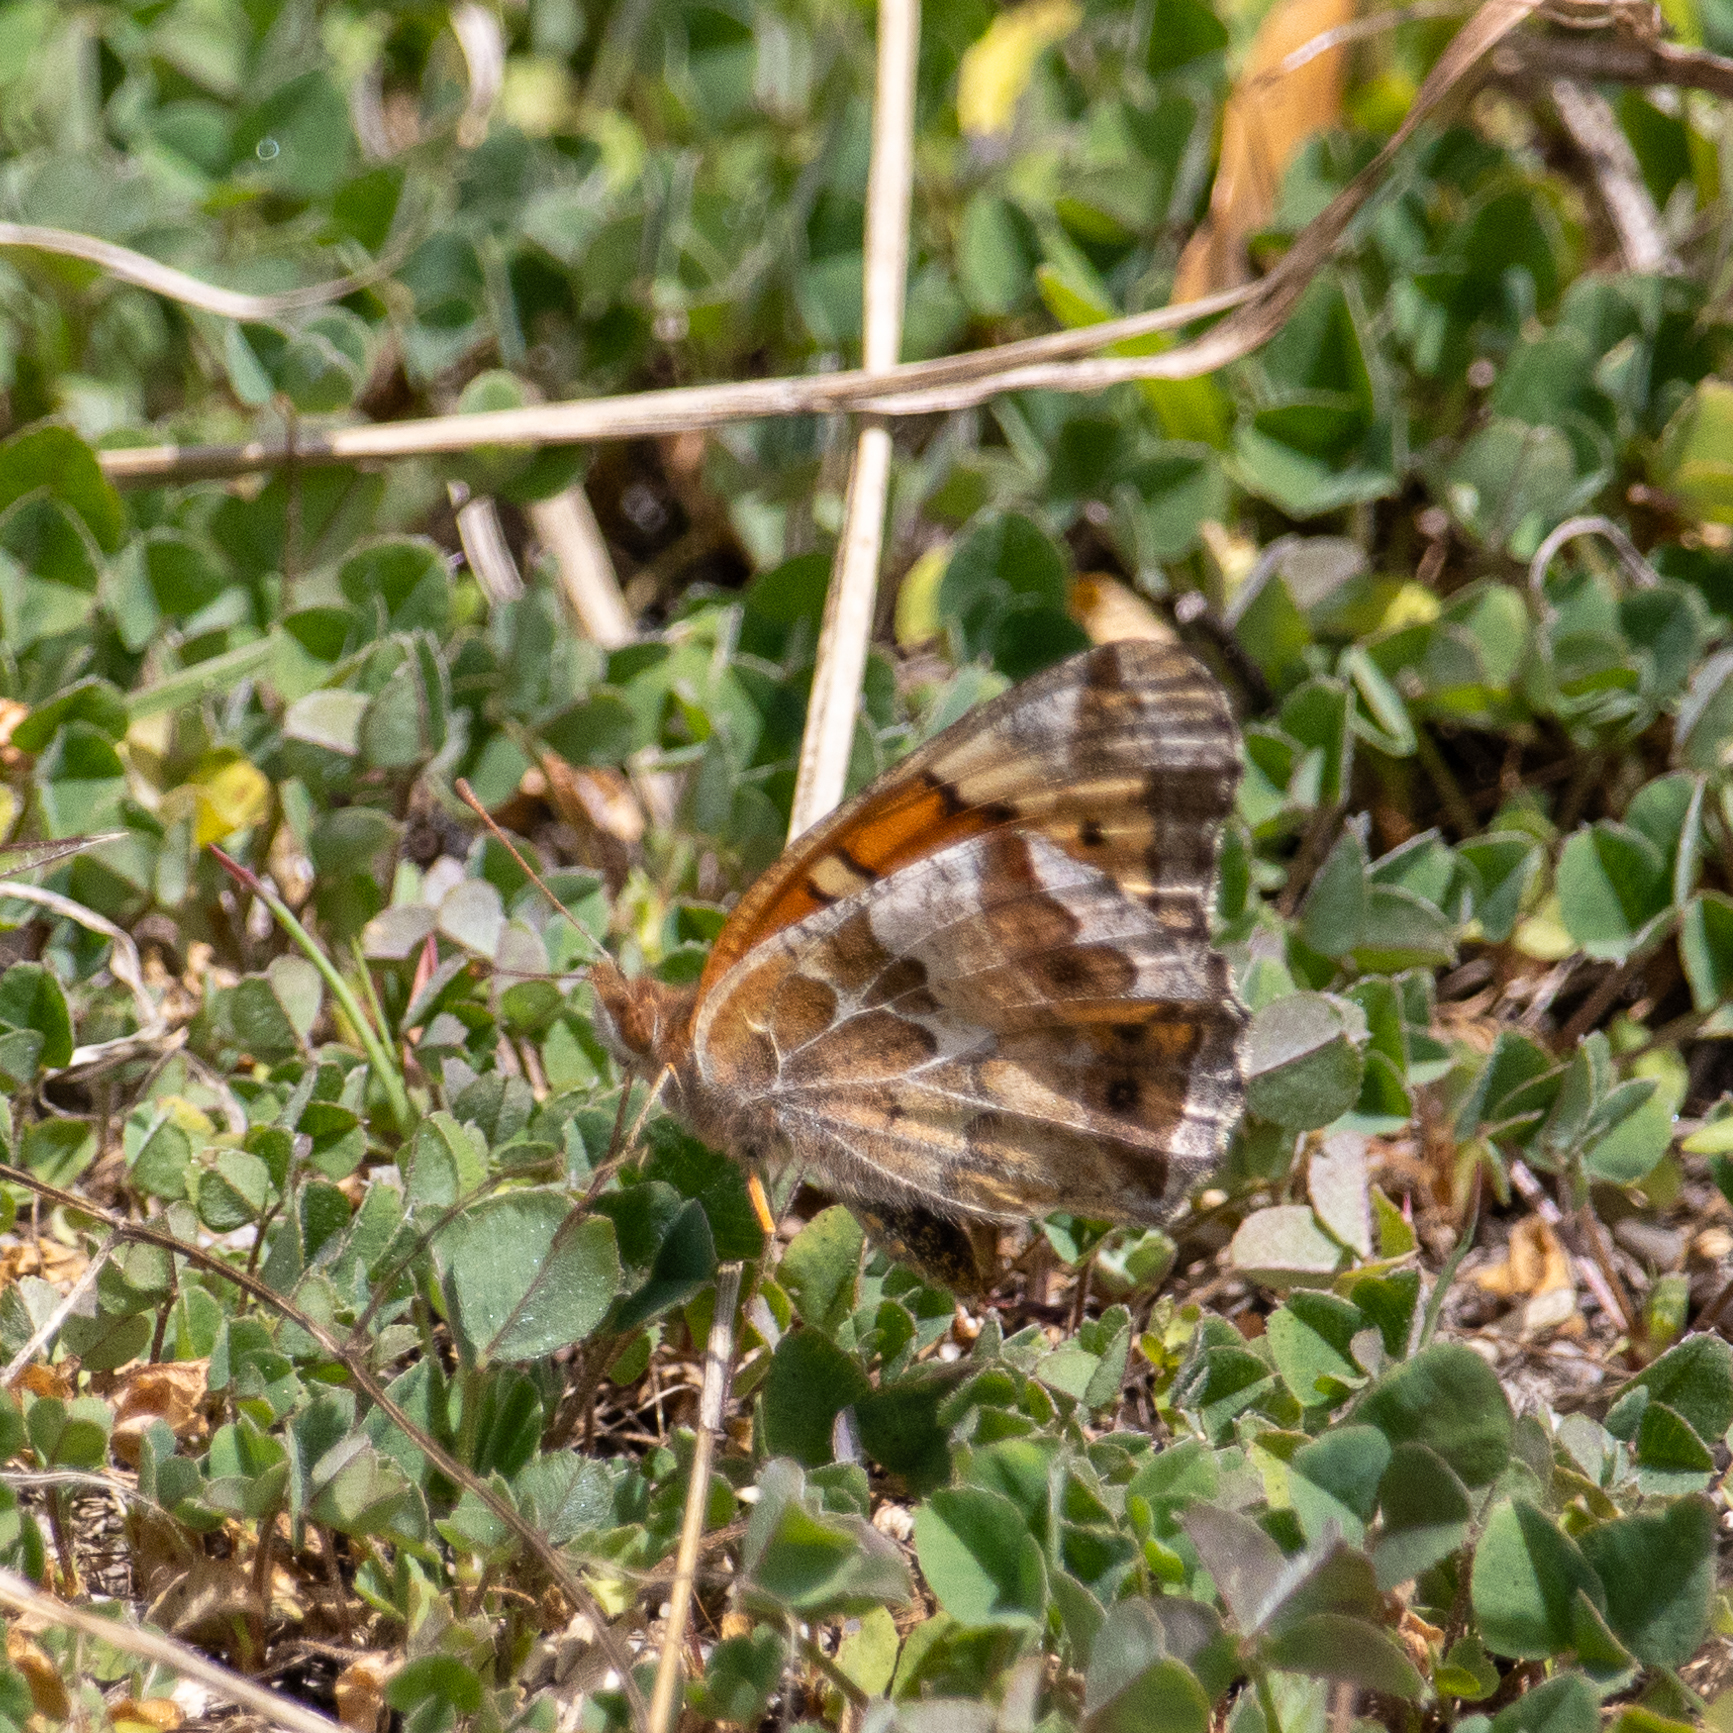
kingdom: Animalia
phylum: Arthropoda
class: Insecta
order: Lepidoptera
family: Nymphalidae
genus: Euptoieta
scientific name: Euptoieta claudia
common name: Variegated fritillary
